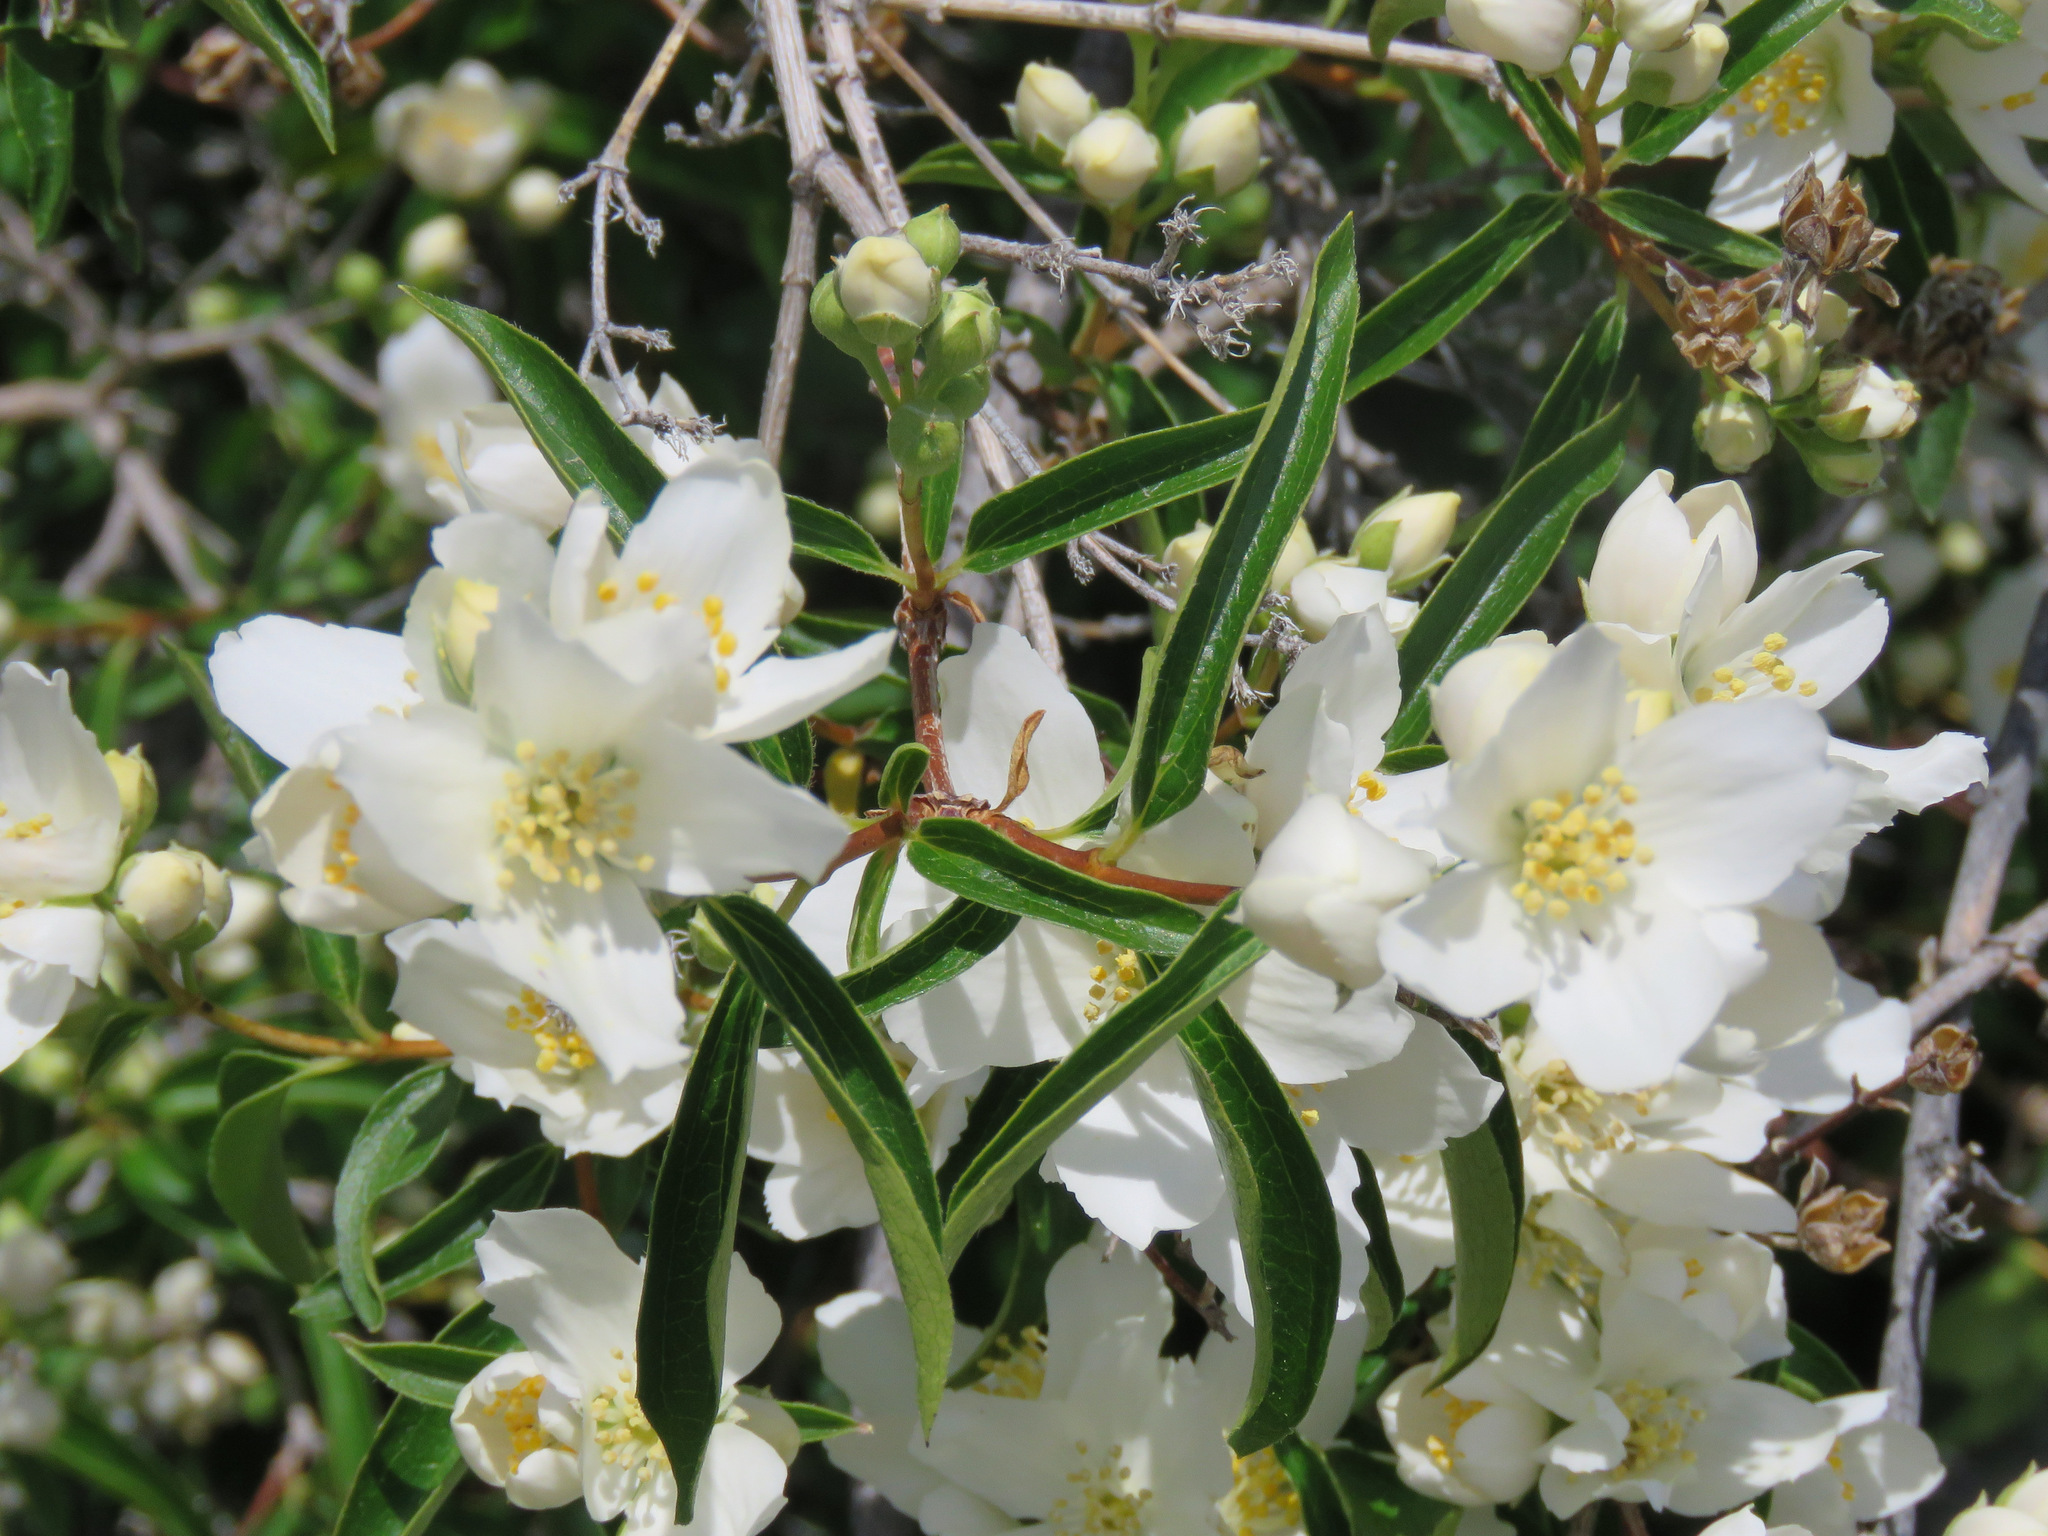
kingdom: Plantae
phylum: Tracheophyta
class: Magnoliopsida
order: Cornales
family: Hydrangeaceae
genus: Philadelphus
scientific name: Philadelphus lewisii
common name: Lewis's mock orange
